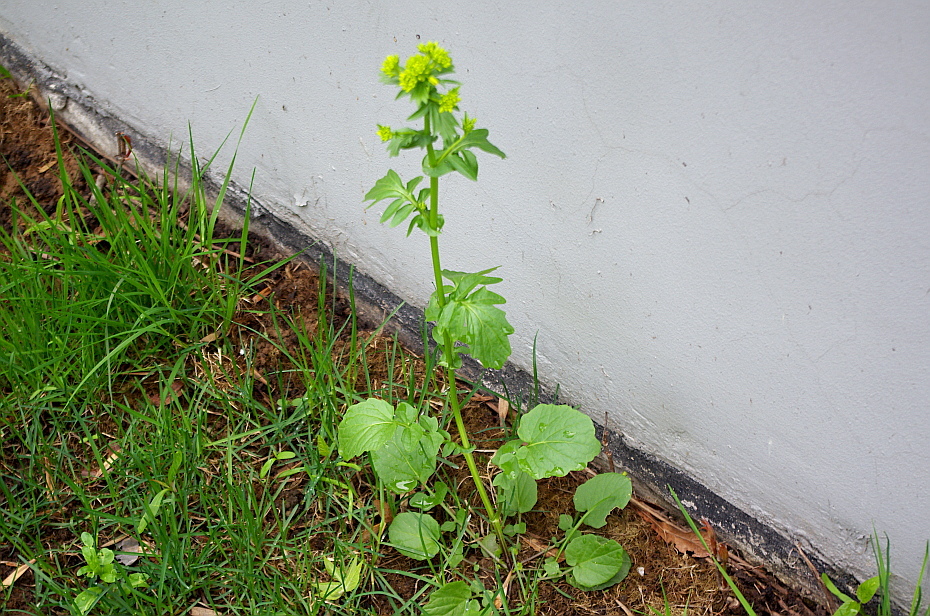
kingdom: Plantae
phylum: Tracheophyta
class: Magnoliopsida
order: Brassicales
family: Brassicaceae
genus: Barbarea
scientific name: Barbarea vulgaris
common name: Cressy-greens
